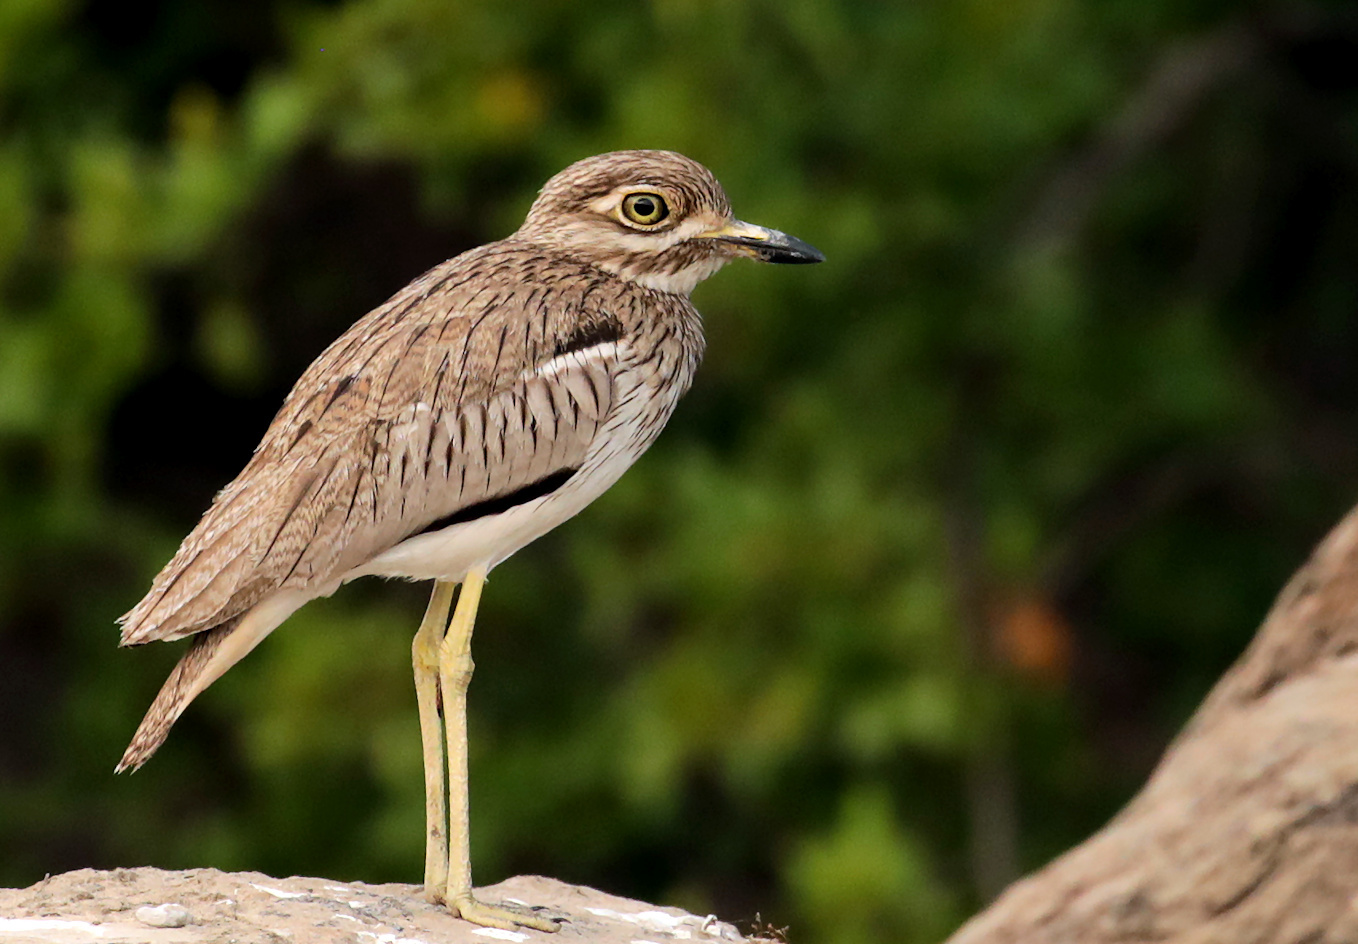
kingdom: Animalia
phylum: Chordata
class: Aves
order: Charadriiformes
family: Burhinidae
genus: Burhinus
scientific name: Burhinus vermiculatus
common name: Water thick-knee
